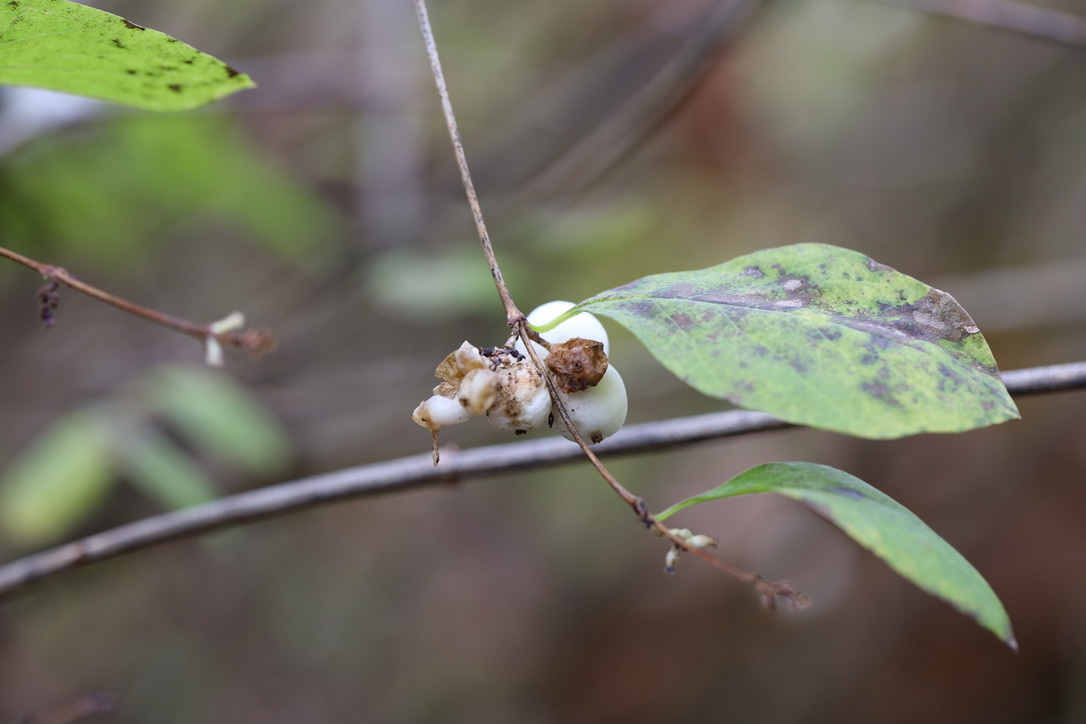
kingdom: Plantae
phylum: Tracheophyta
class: Magnoliopsida
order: Dipsacales
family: Caprifoliaceae
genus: Symphoricarpos
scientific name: Symphoricarpos albus
